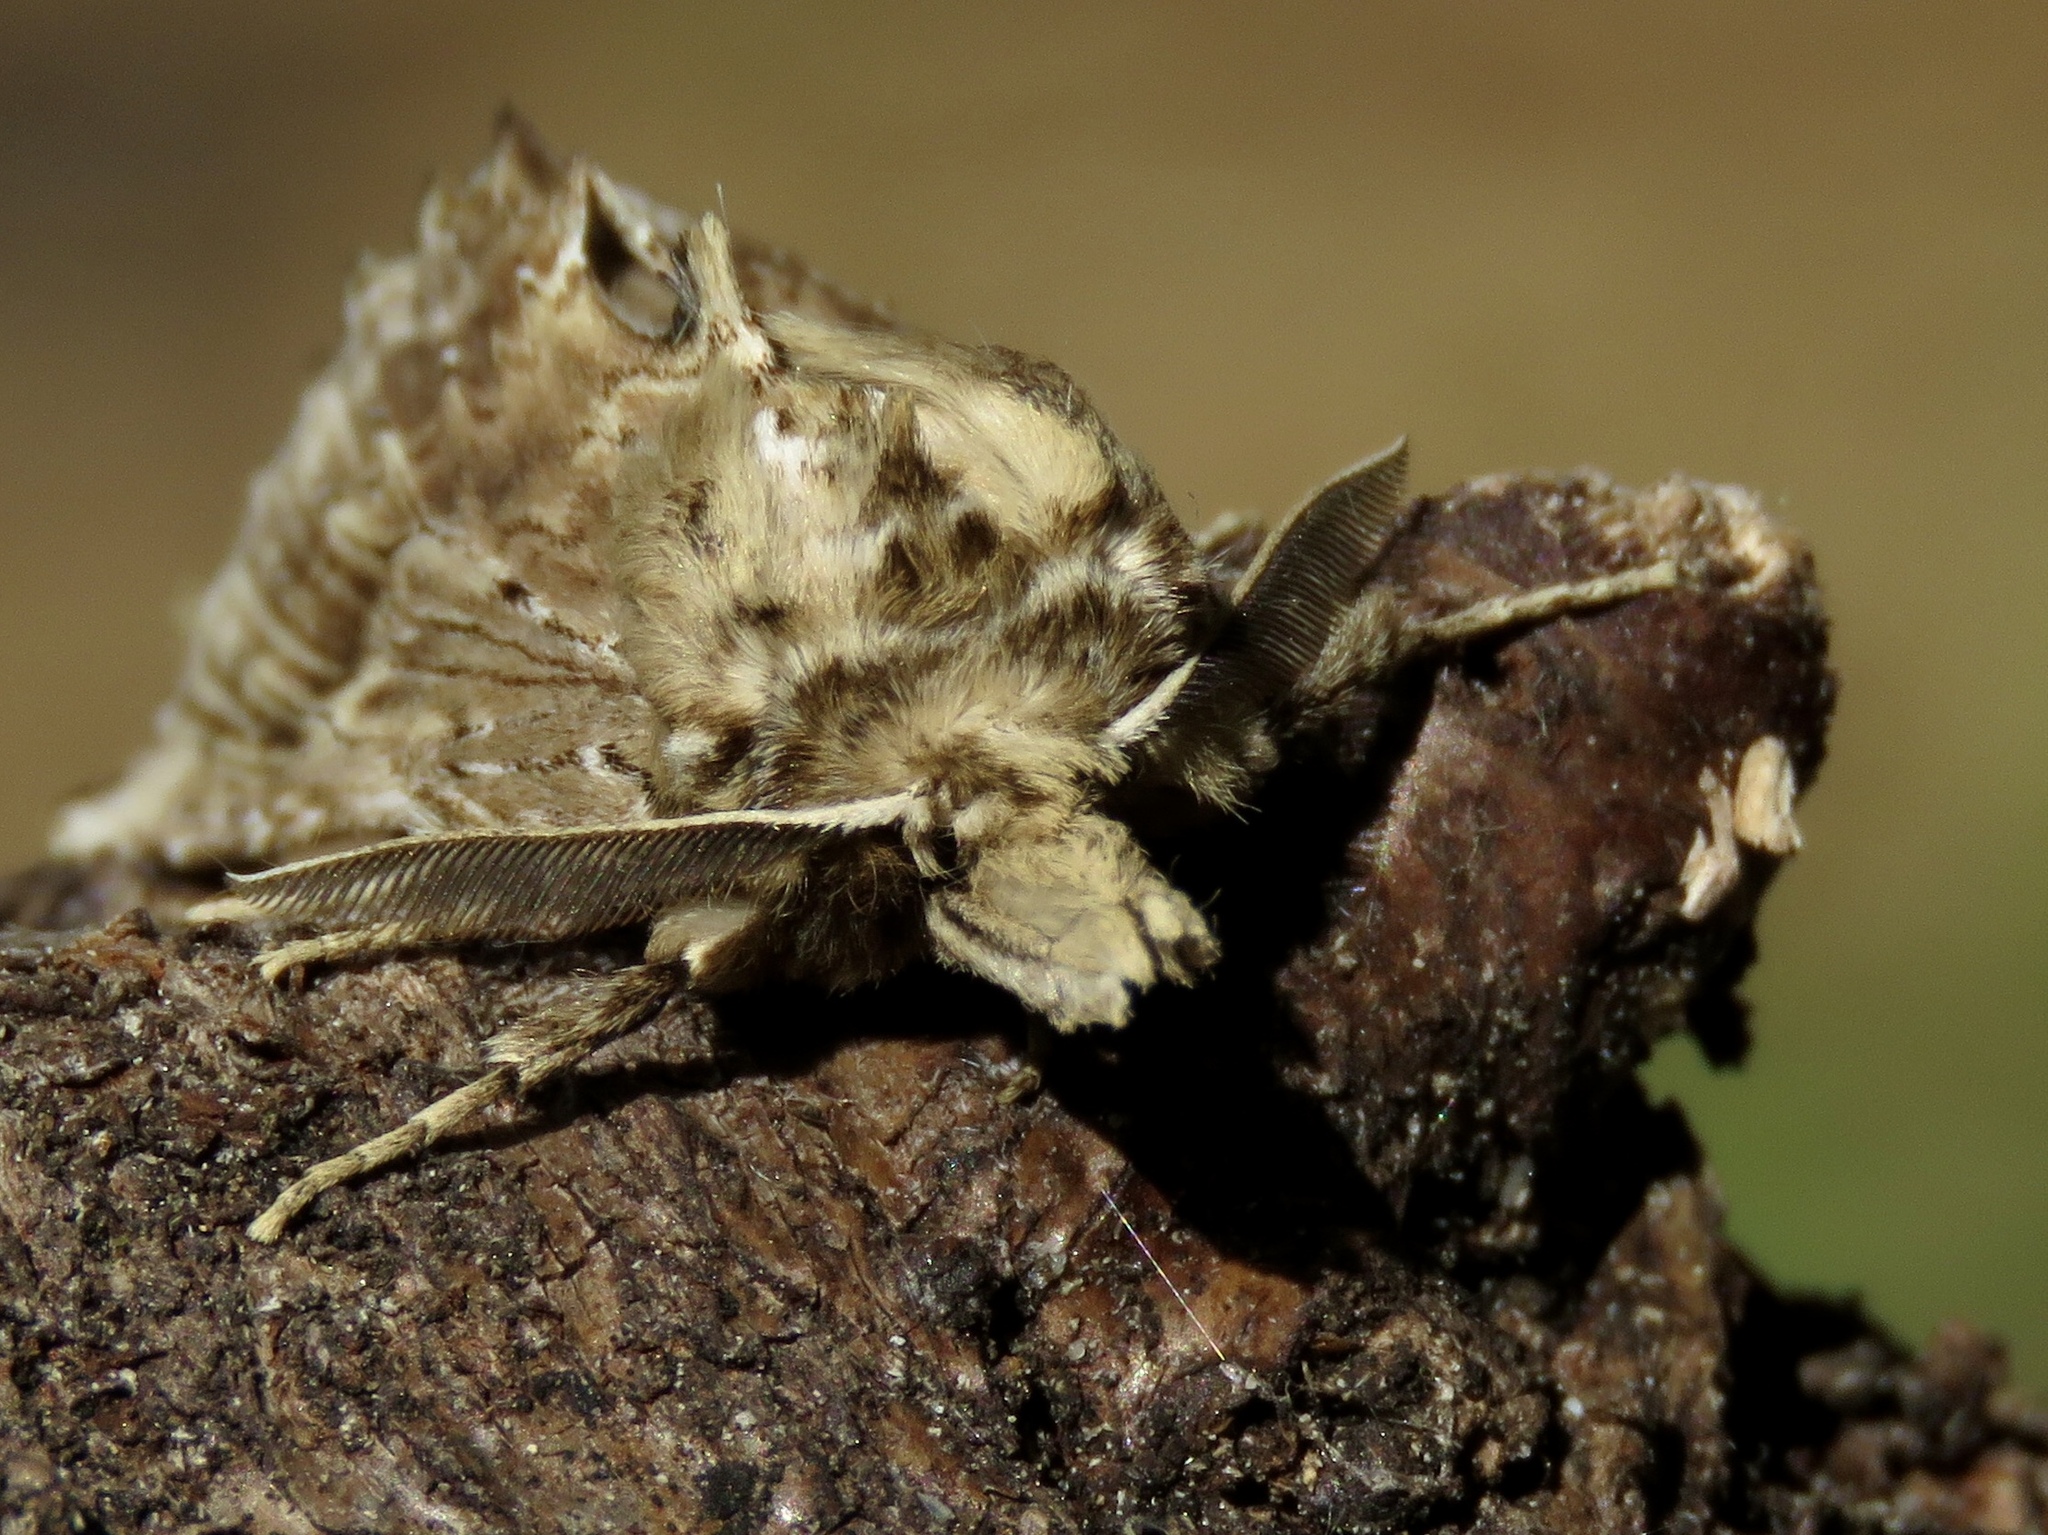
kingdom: Animalia
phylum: Arthropoda
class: Insecta
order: Lepidoptera
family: Notodontidae
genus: Pterostoma
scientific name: Pterostoma palpina
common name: Pale prominent
